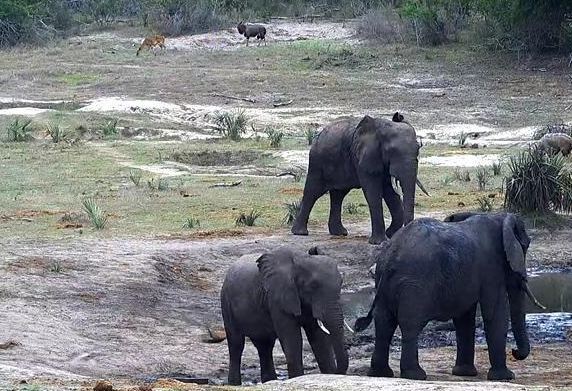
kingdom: Animalia
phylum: Chordata
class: Mammalia
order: Proboscidea
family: Elephantidae
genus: Loxodonta
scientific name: Loxodonta africana
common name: African elephant
